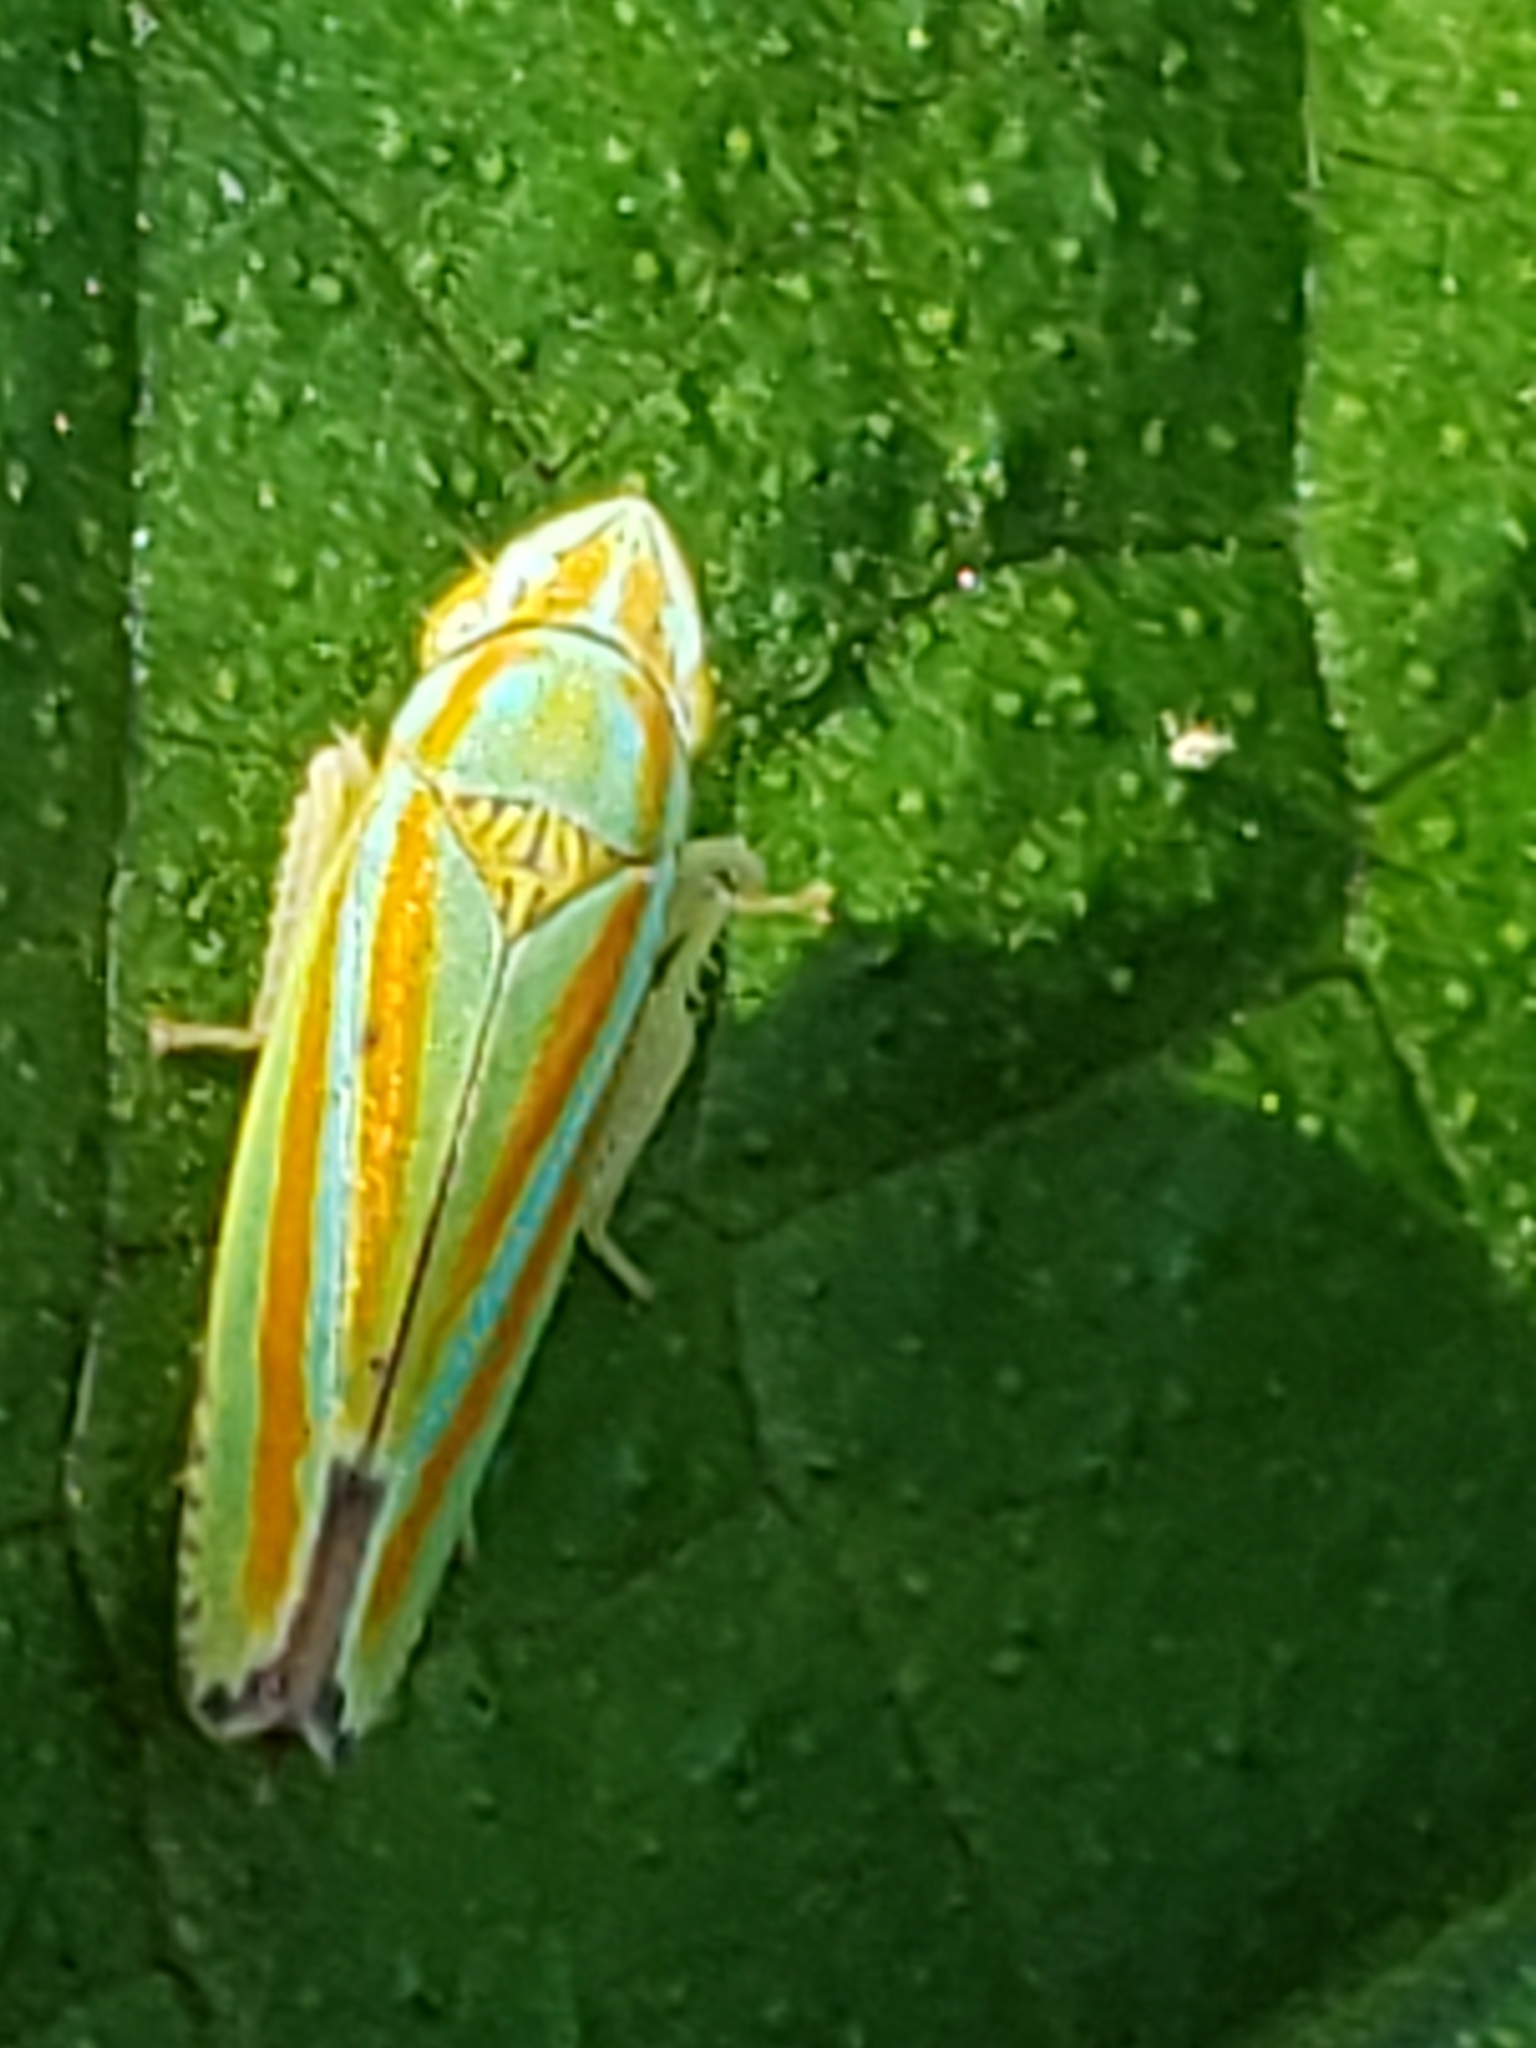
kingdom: Animalia
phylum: Arthropoda
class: Insecta
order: Hemiptera
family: Cicadellidae
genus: Graphocephala
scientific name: Graphocephala versuta
